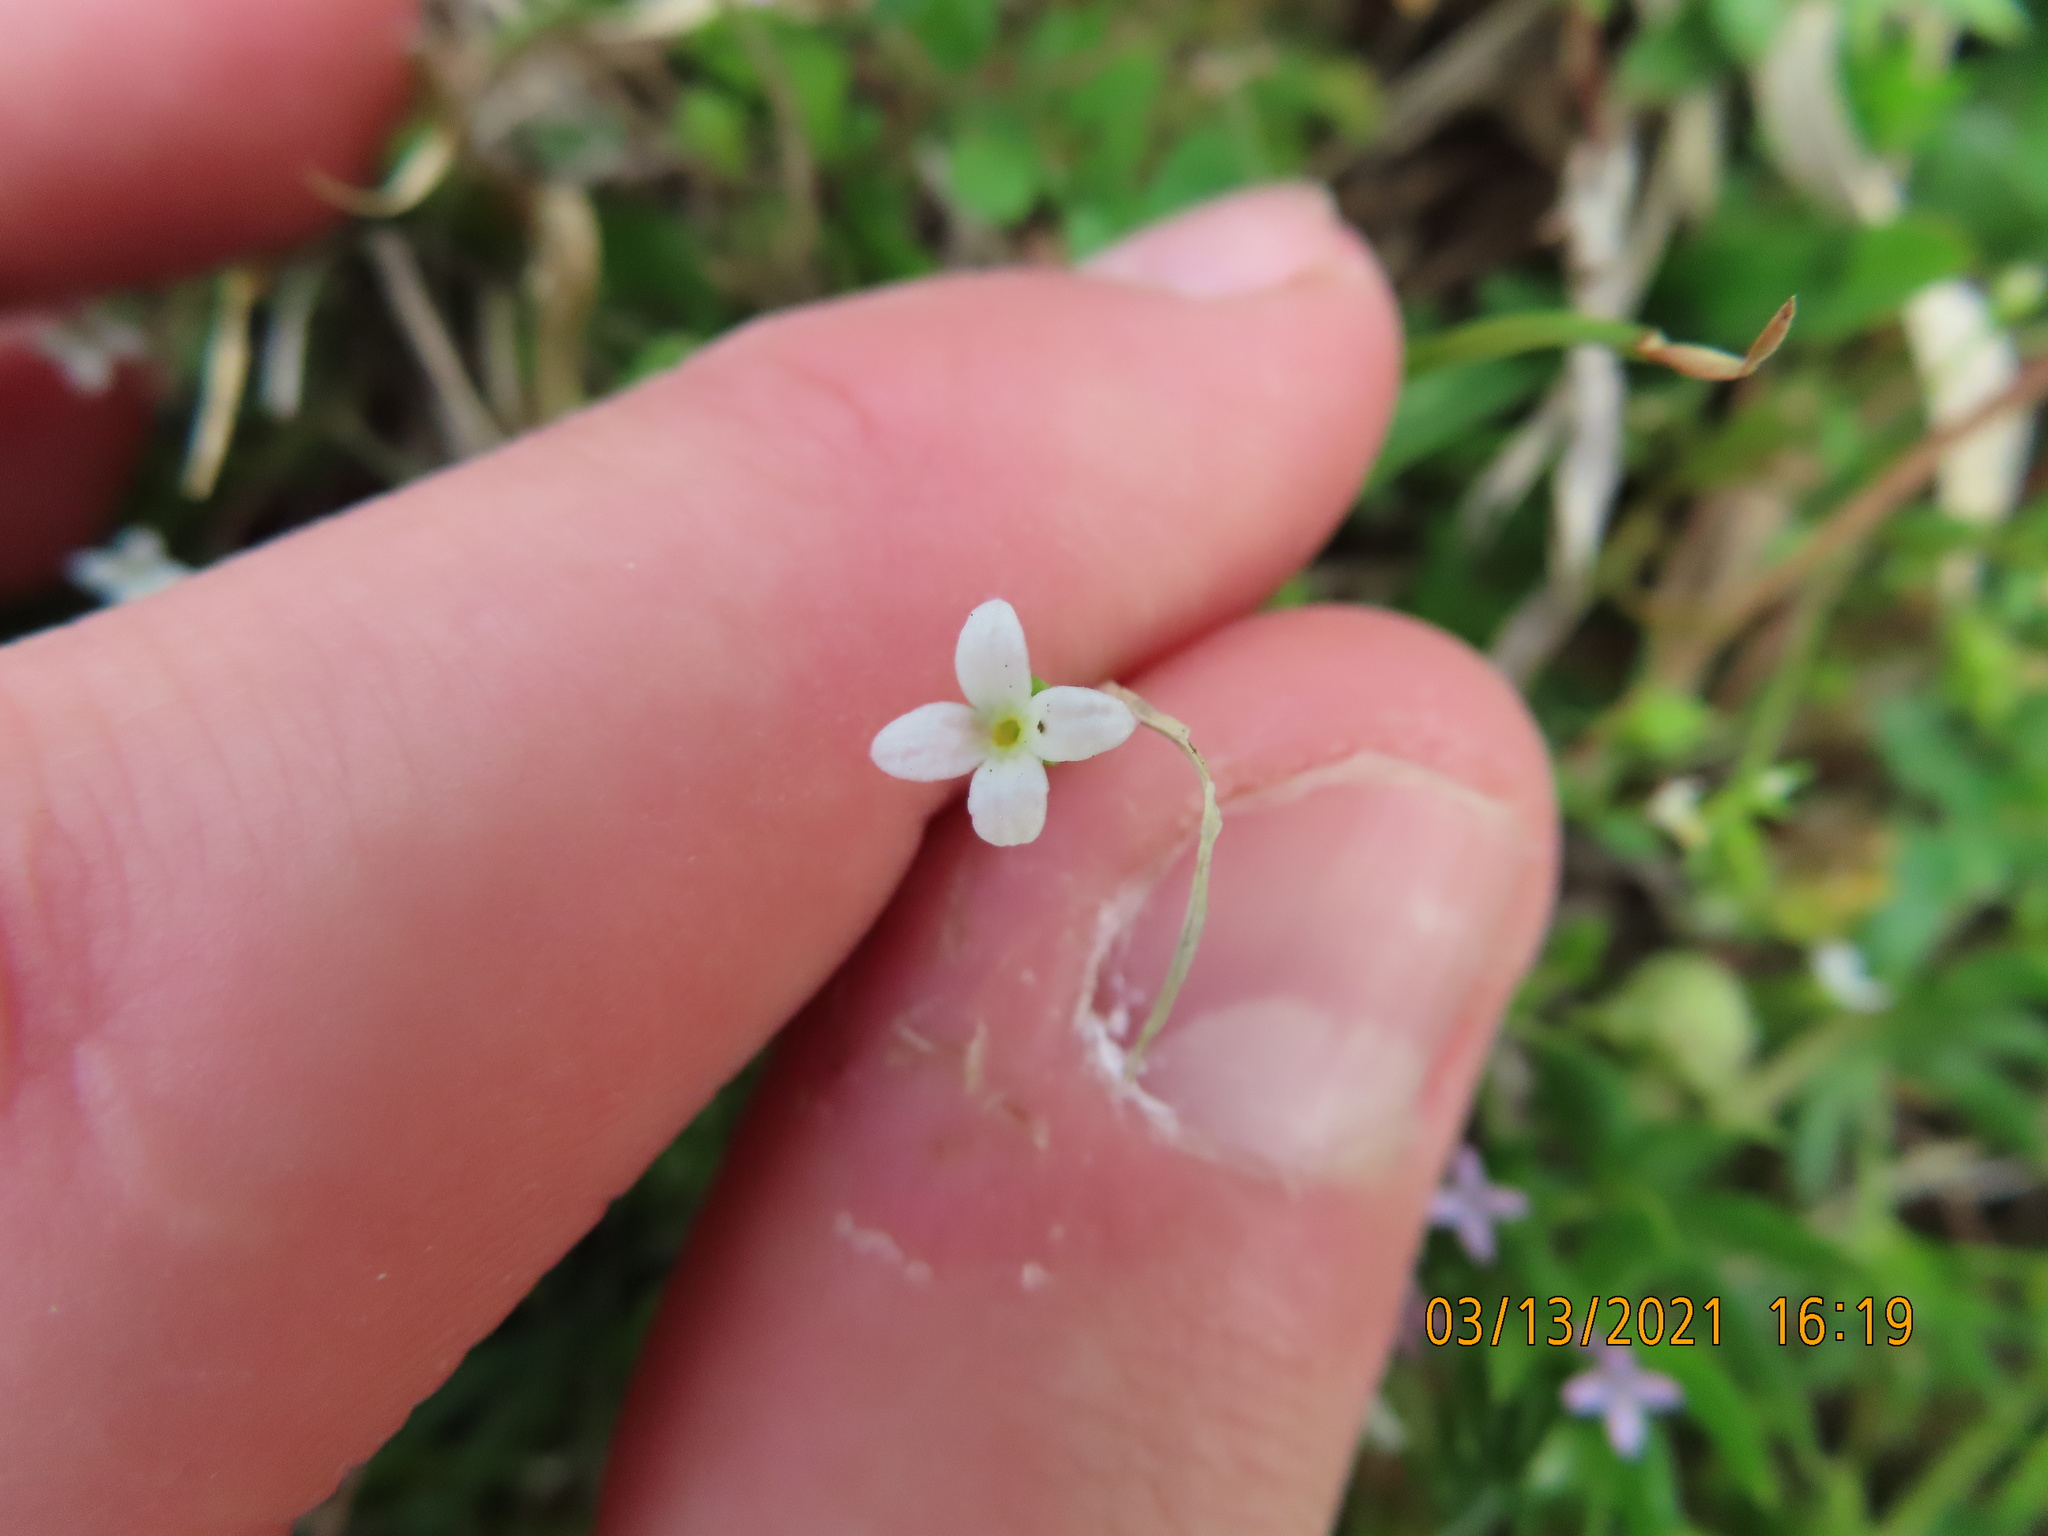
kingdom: Plantae
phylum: Tracheophyta
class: Magnoliopsida
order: Gentianales
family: Rubiaceae
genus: Houstonia
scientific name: Houstonia micrantha
